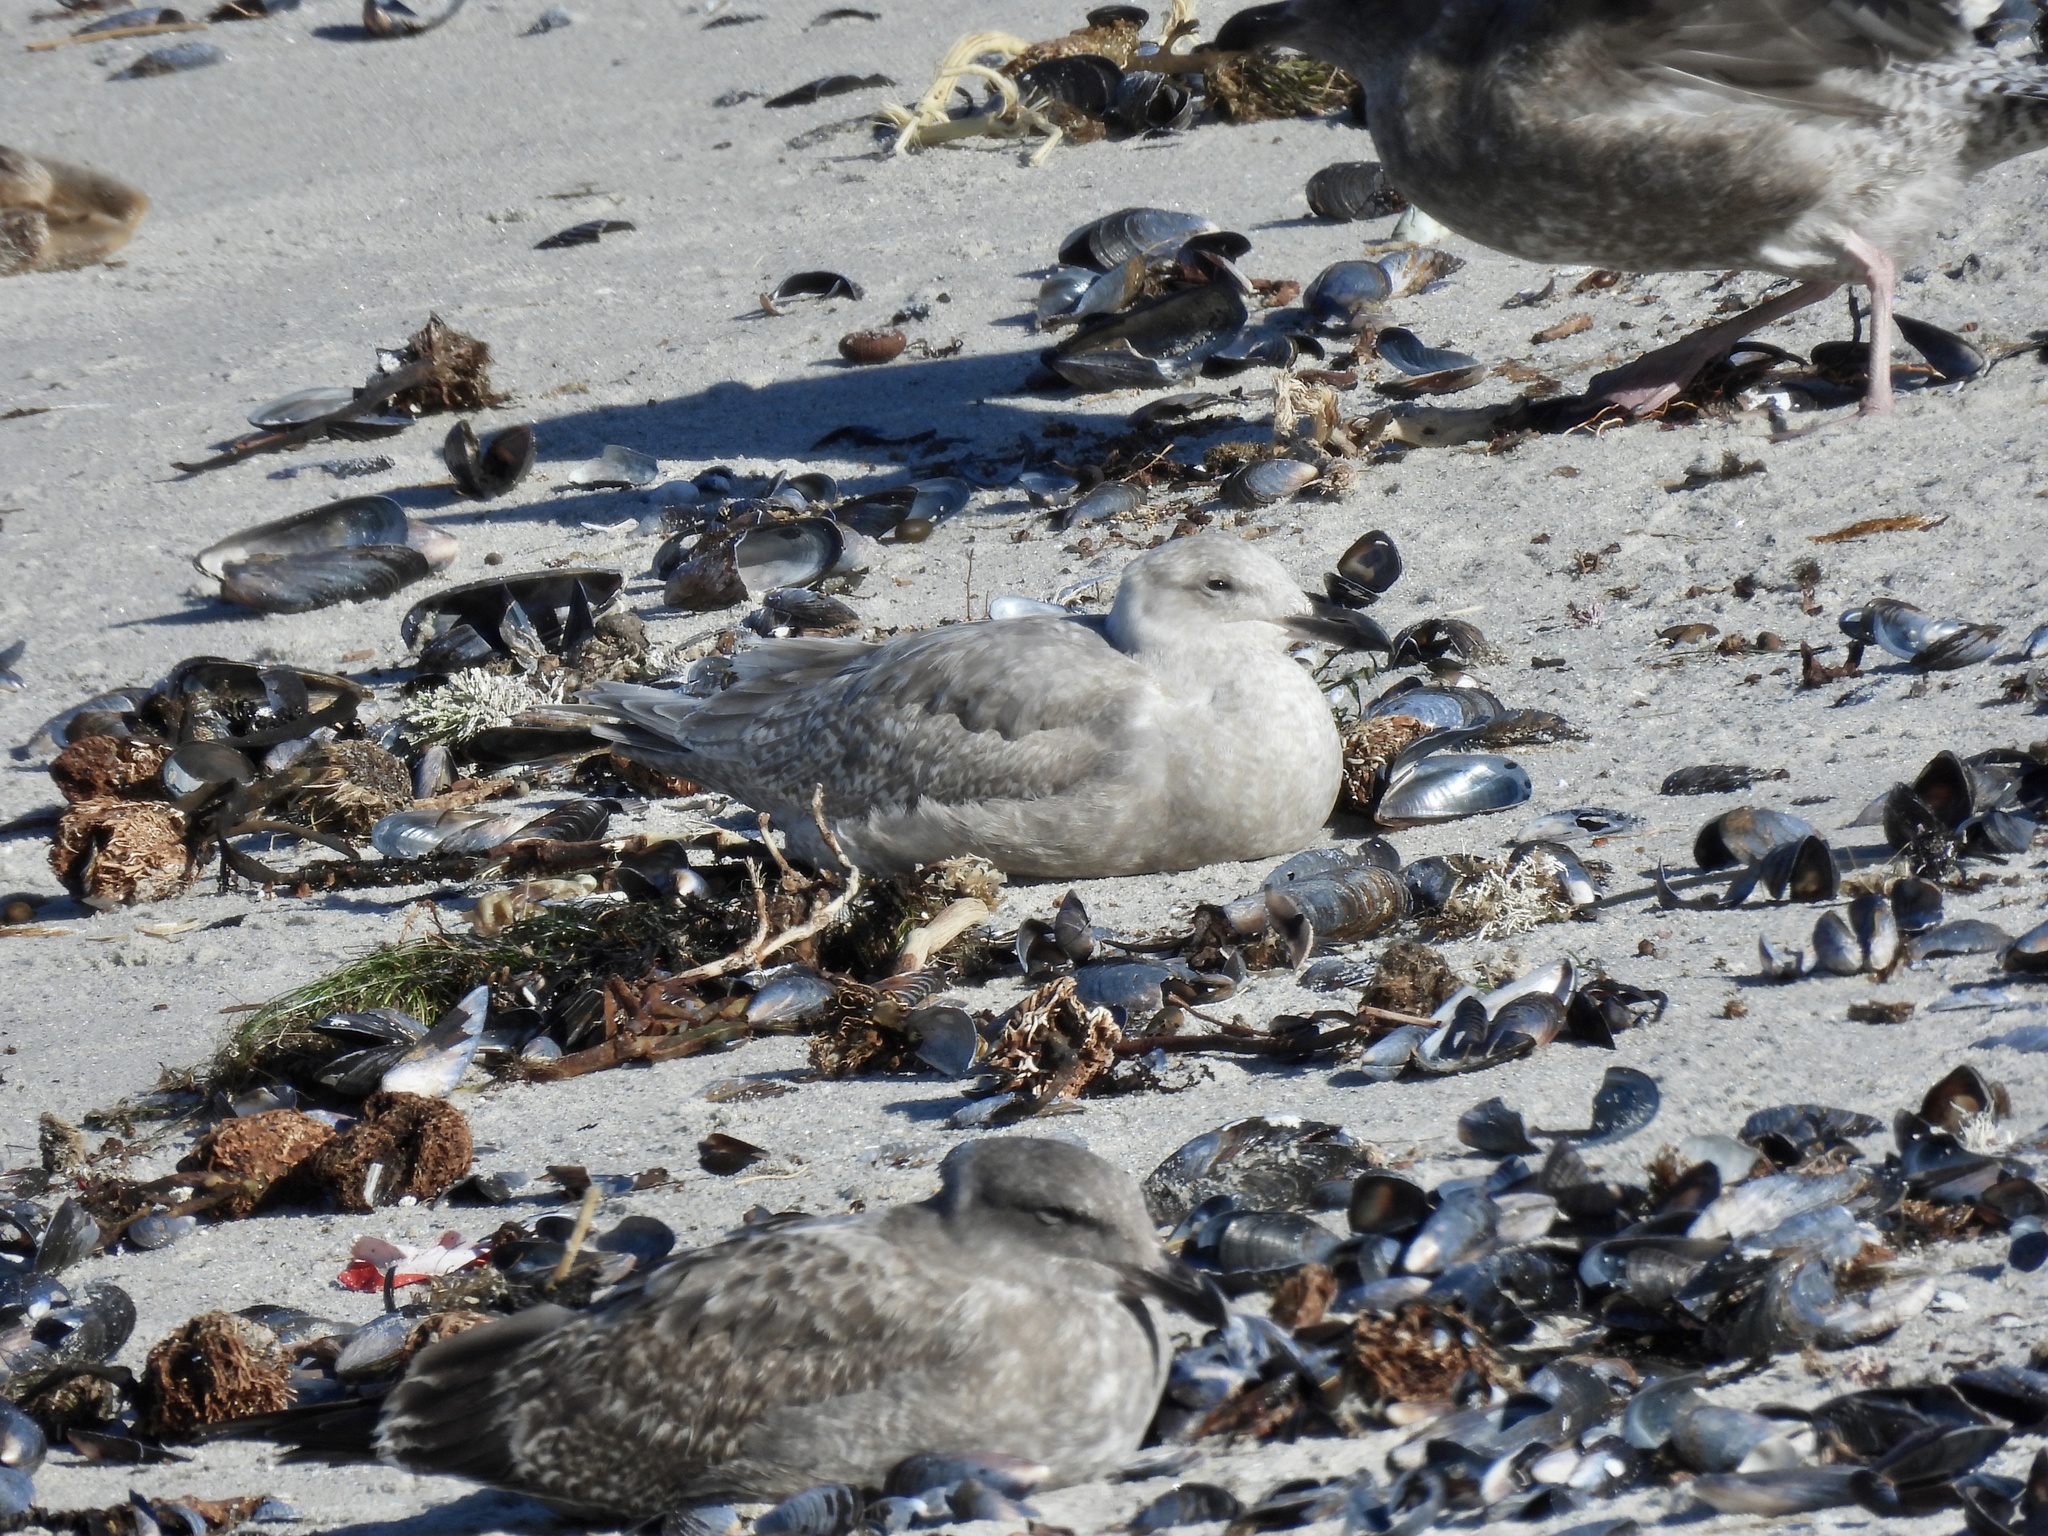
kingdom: Animalia
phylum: Chordata
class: Aves
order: Charadriiformes
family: Laridae
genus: Larus
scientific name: Larus glaucescens
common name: Glaucous-winged gull
